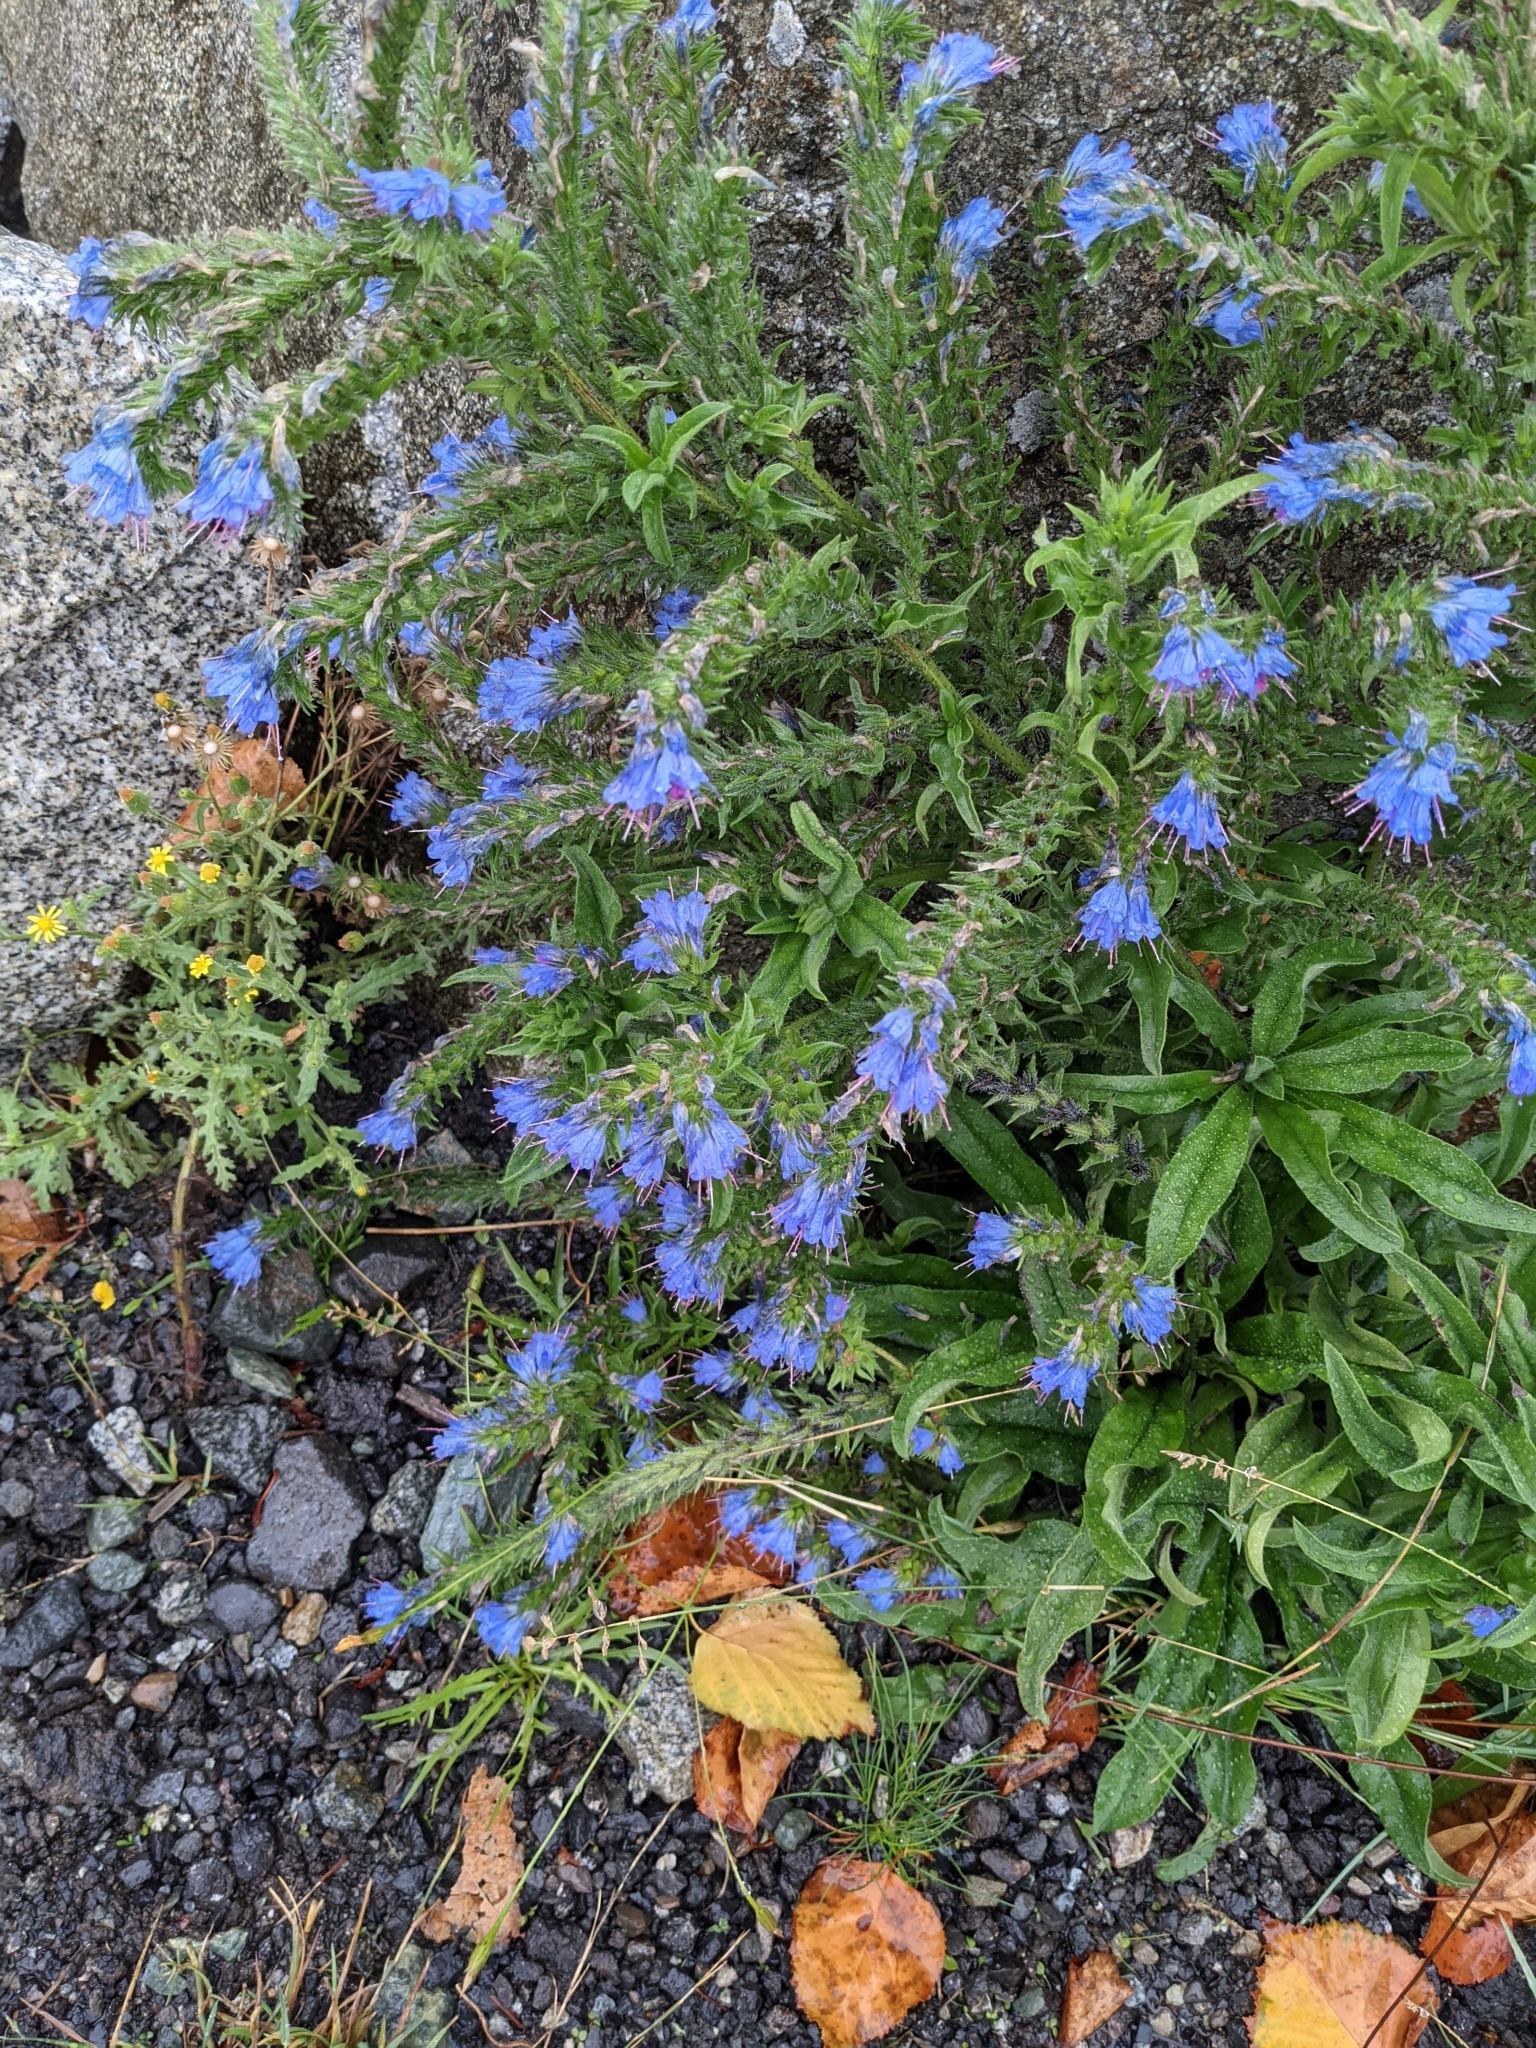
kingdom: Plantae
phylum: Tracheophyta
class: Magnoliopsida
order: Boraginales
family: Boraginaceae
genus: Echium
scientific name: Echium vulgare
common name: Common viper's bugloss
